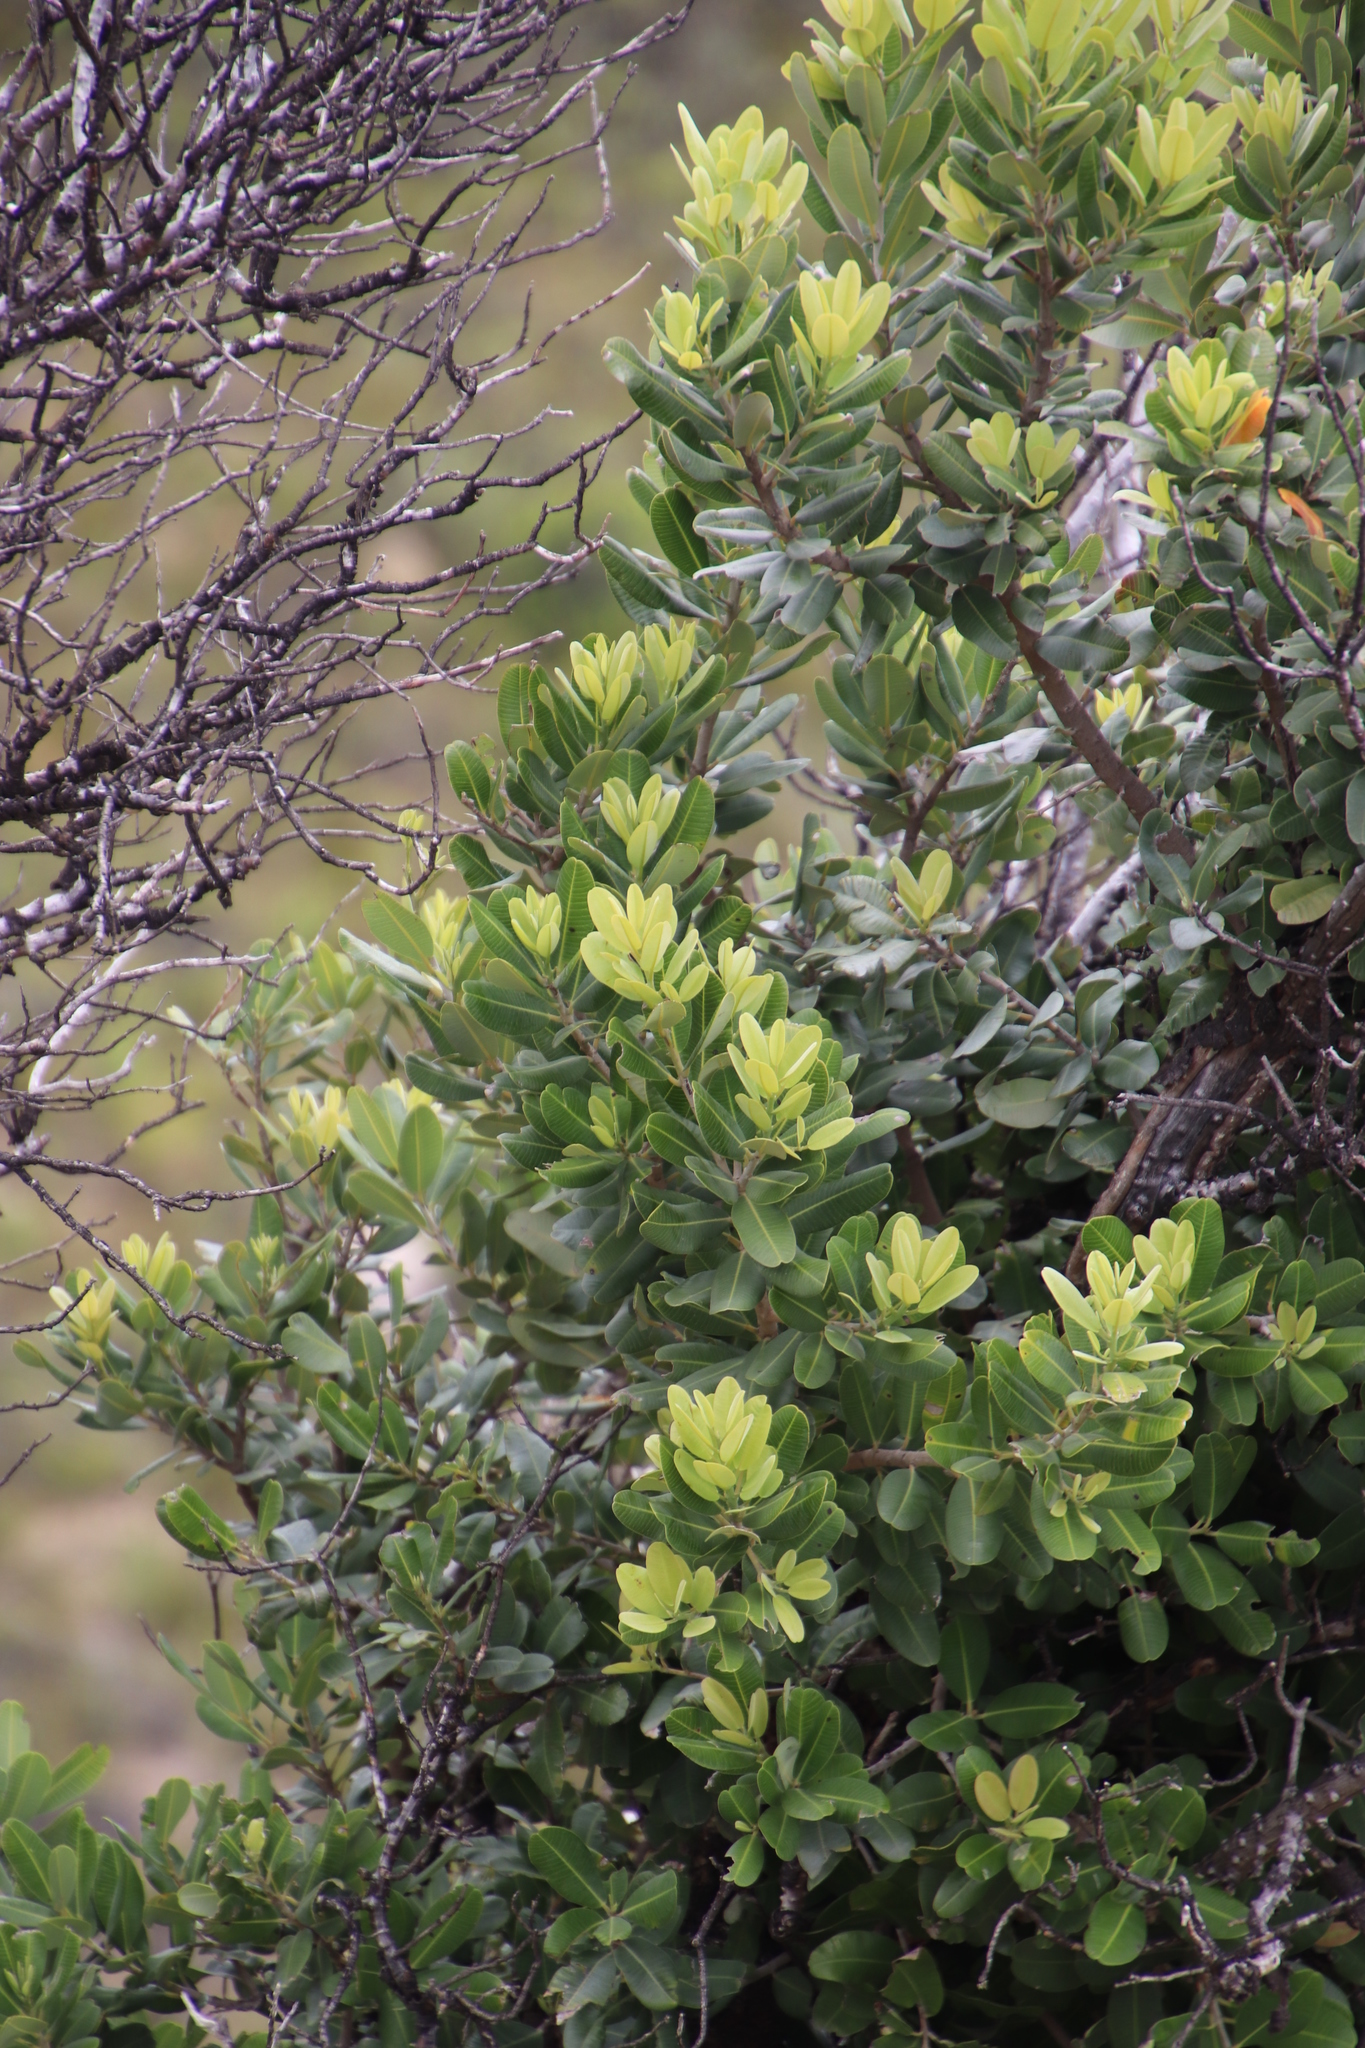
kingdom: Plantae
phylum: Tracheophyta
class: Magnoliopsida
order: Sapindales
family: Anacardiaceae
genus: Heeria
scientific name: Heeria argentea
